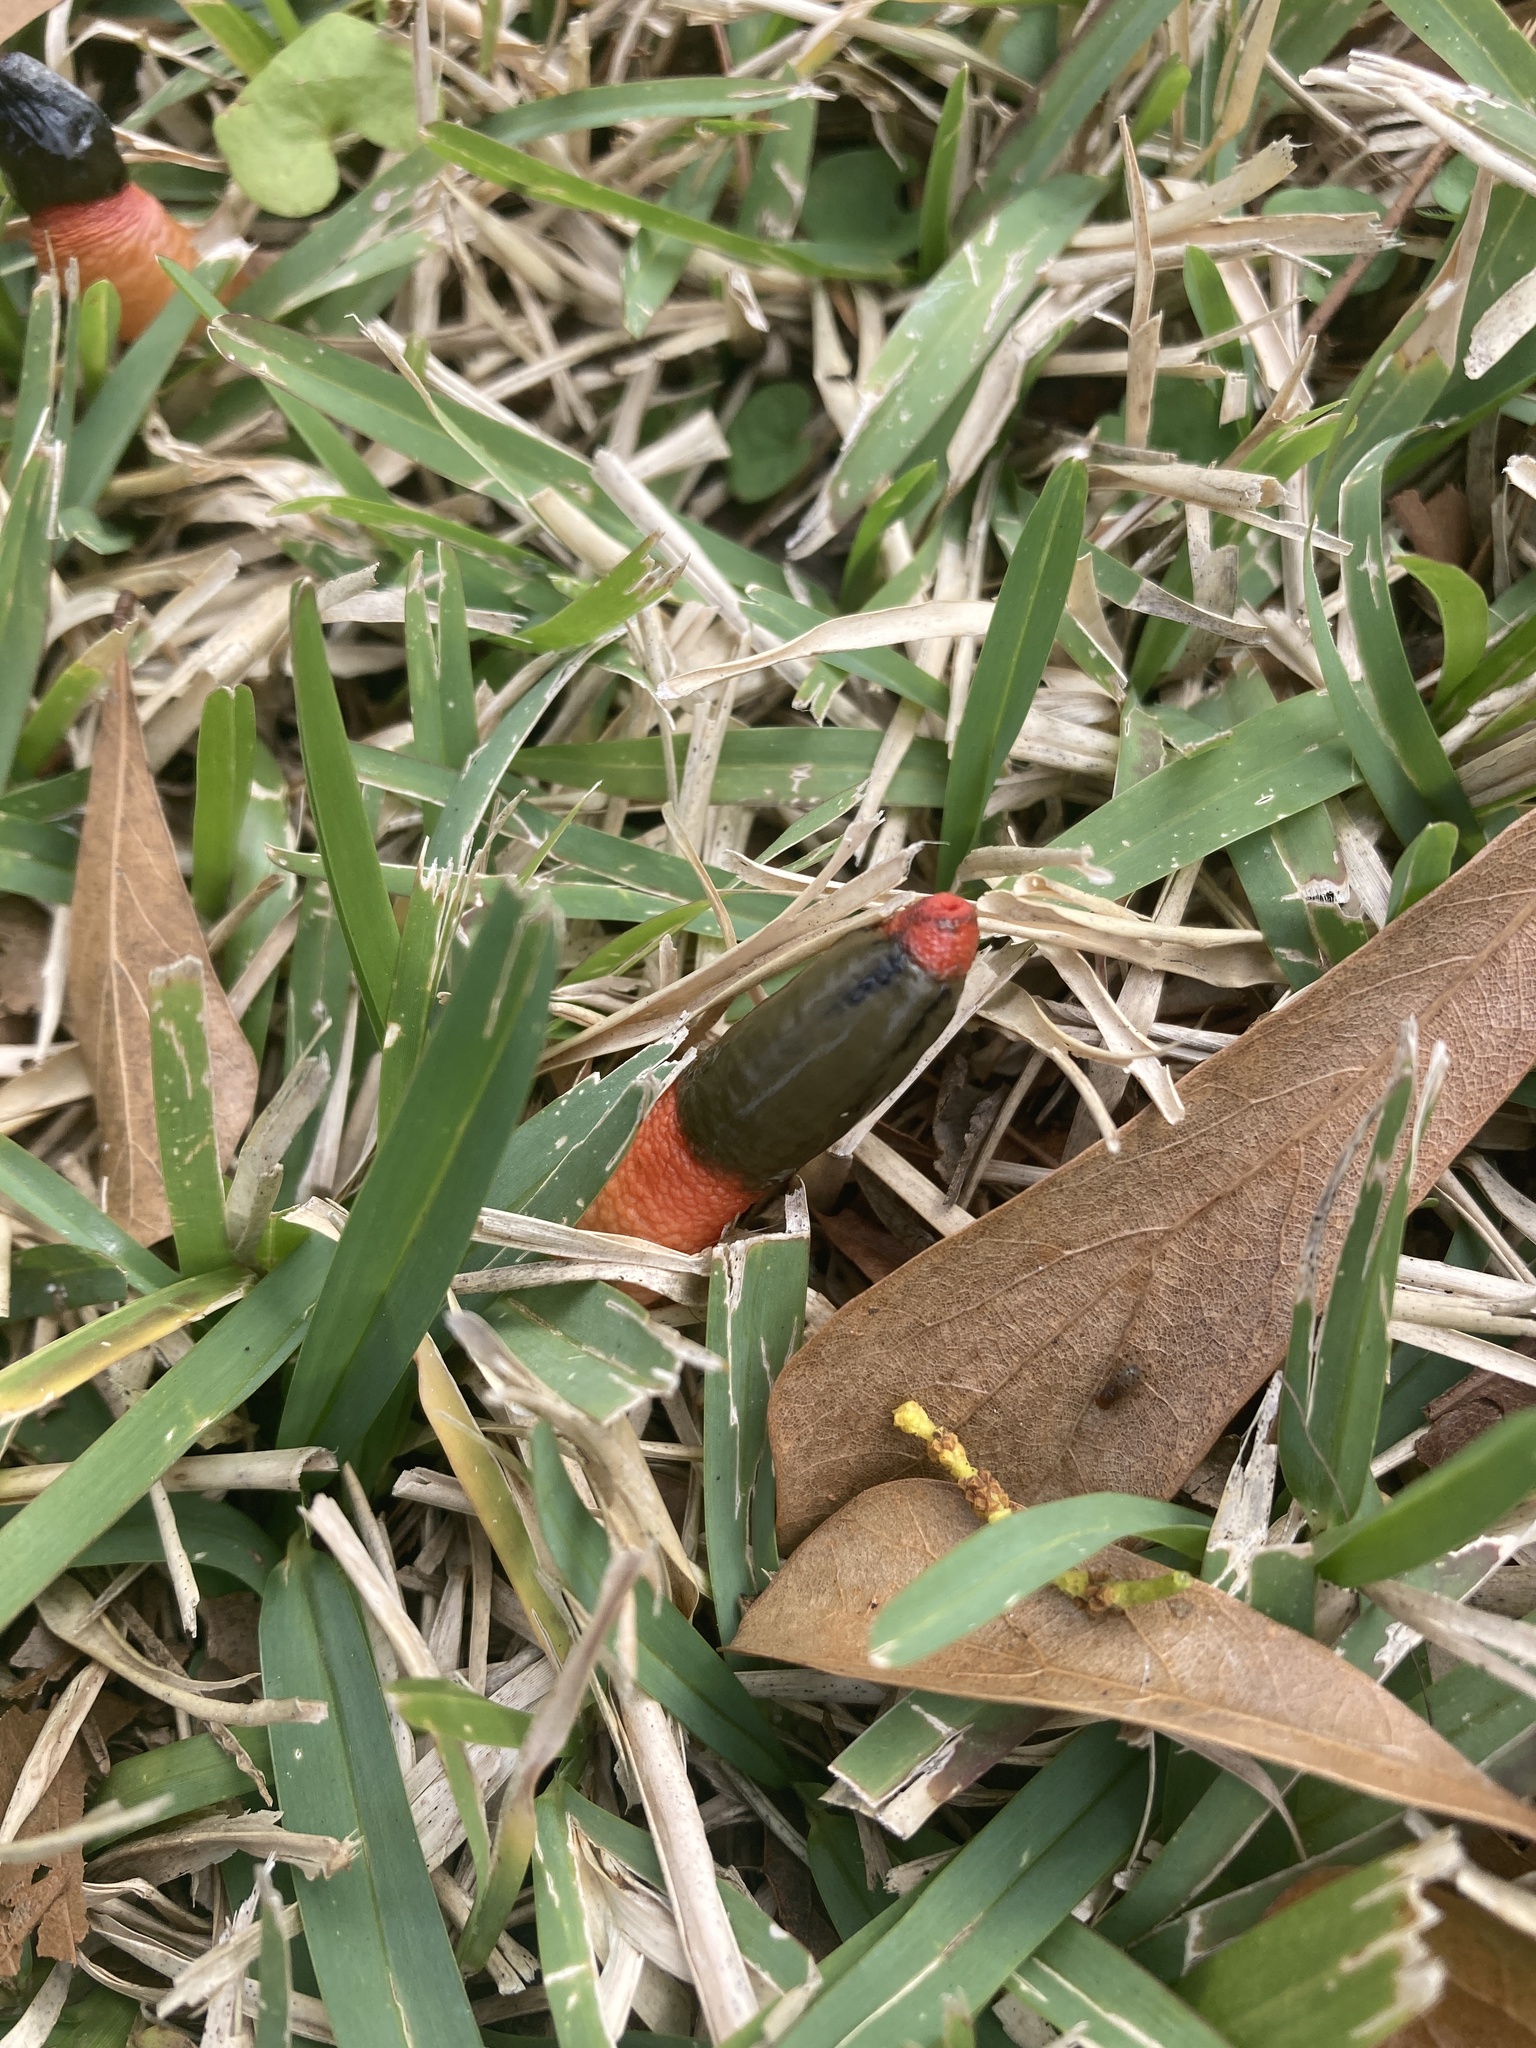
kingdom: Fungi
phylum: Basidiomycota
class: Agaricomycetes
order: Phallales
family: Phallaceae
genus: Mutinus
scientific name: Mutinus elegans
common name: Devil's dipstick
